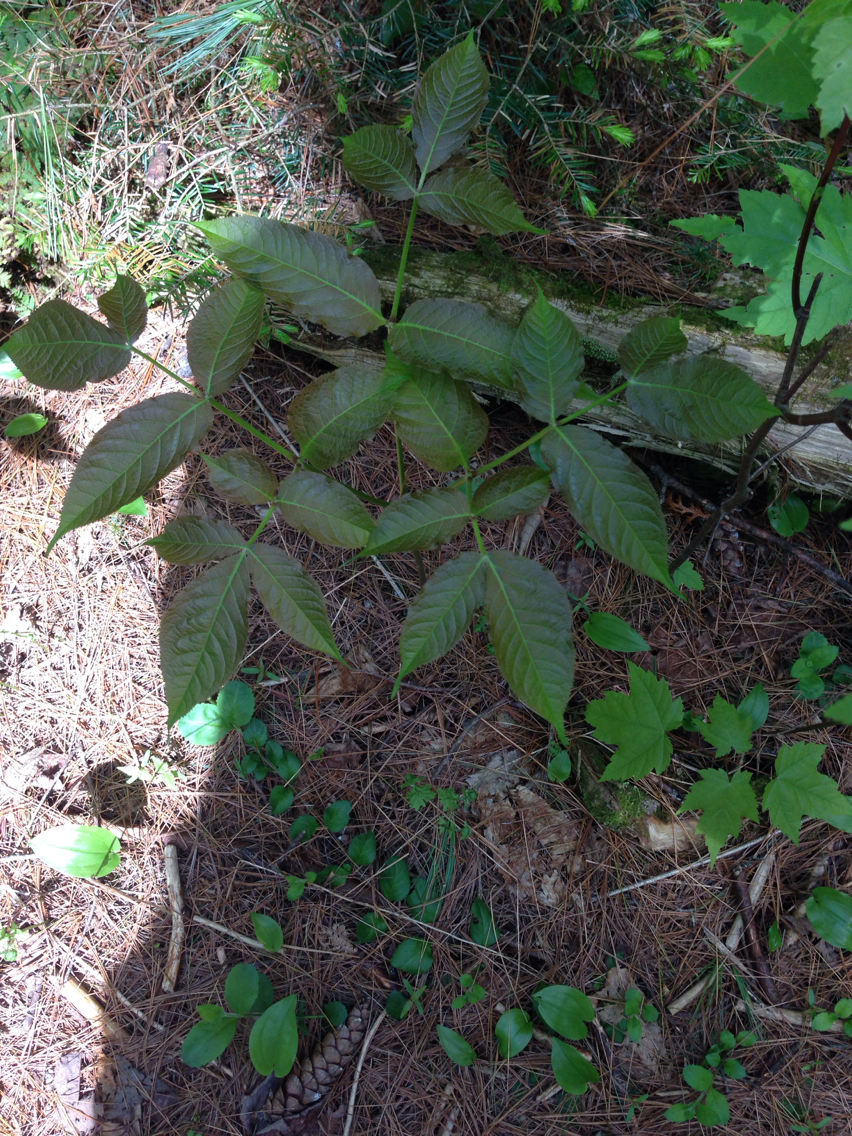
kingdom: Plantae
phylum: Tracheophyta
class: Magnoliopsida
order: Apiales
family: Araliaceae
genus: Aralia
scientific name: Aralia nudicaulis
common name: Wild sarsaparilla
